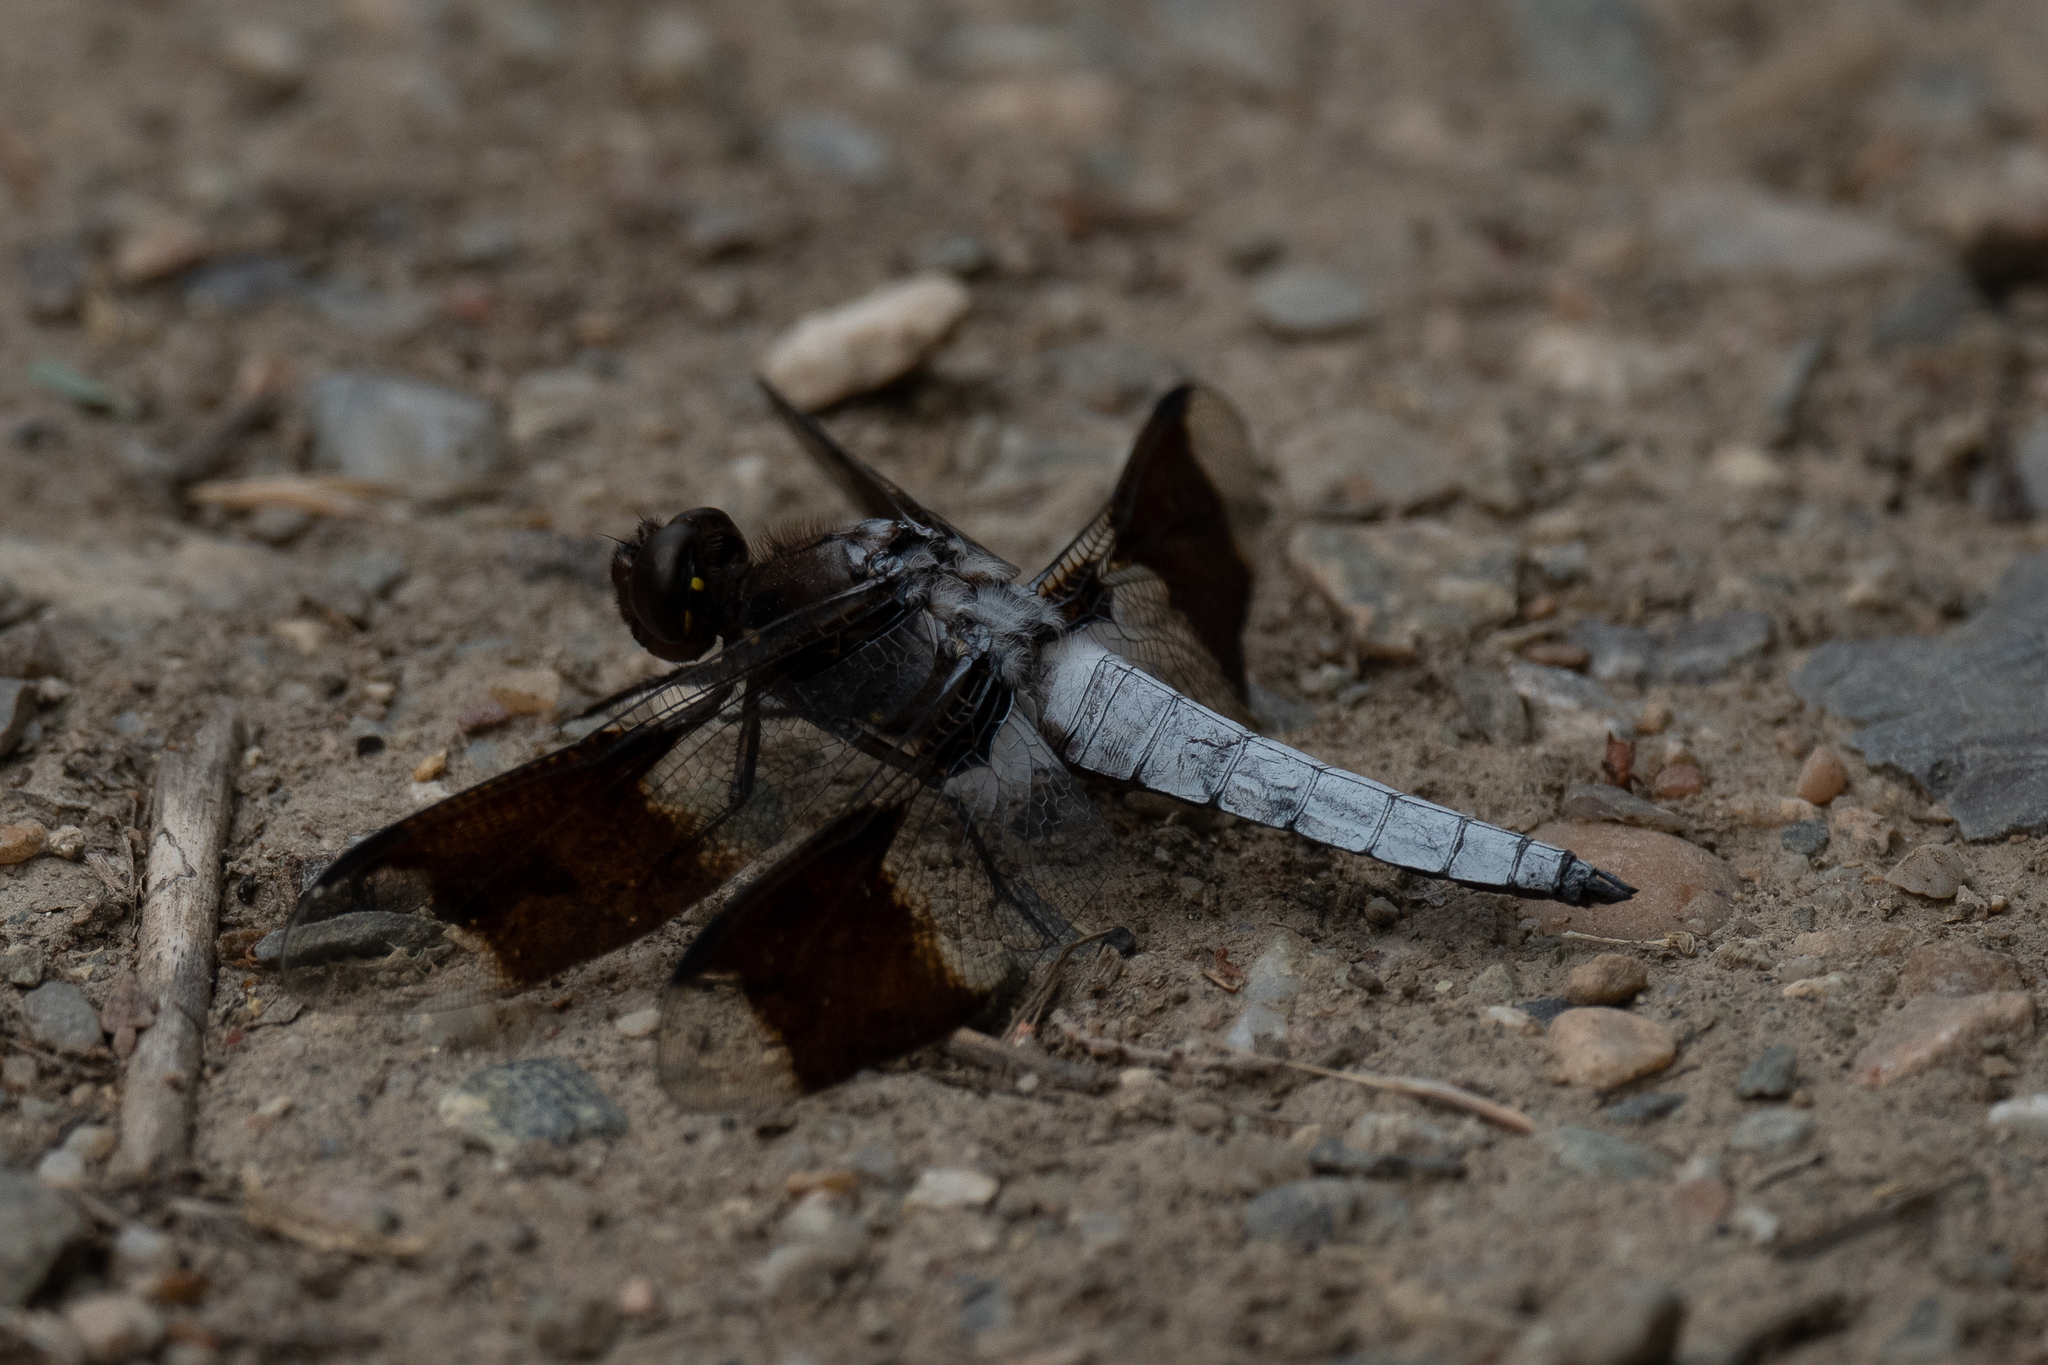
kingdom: Animalia
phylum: Arthropoda
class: Insecta
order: Odonata
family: Libellulidae
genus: Plathemis
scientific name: Plathemis lydia
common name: Common whitetail
